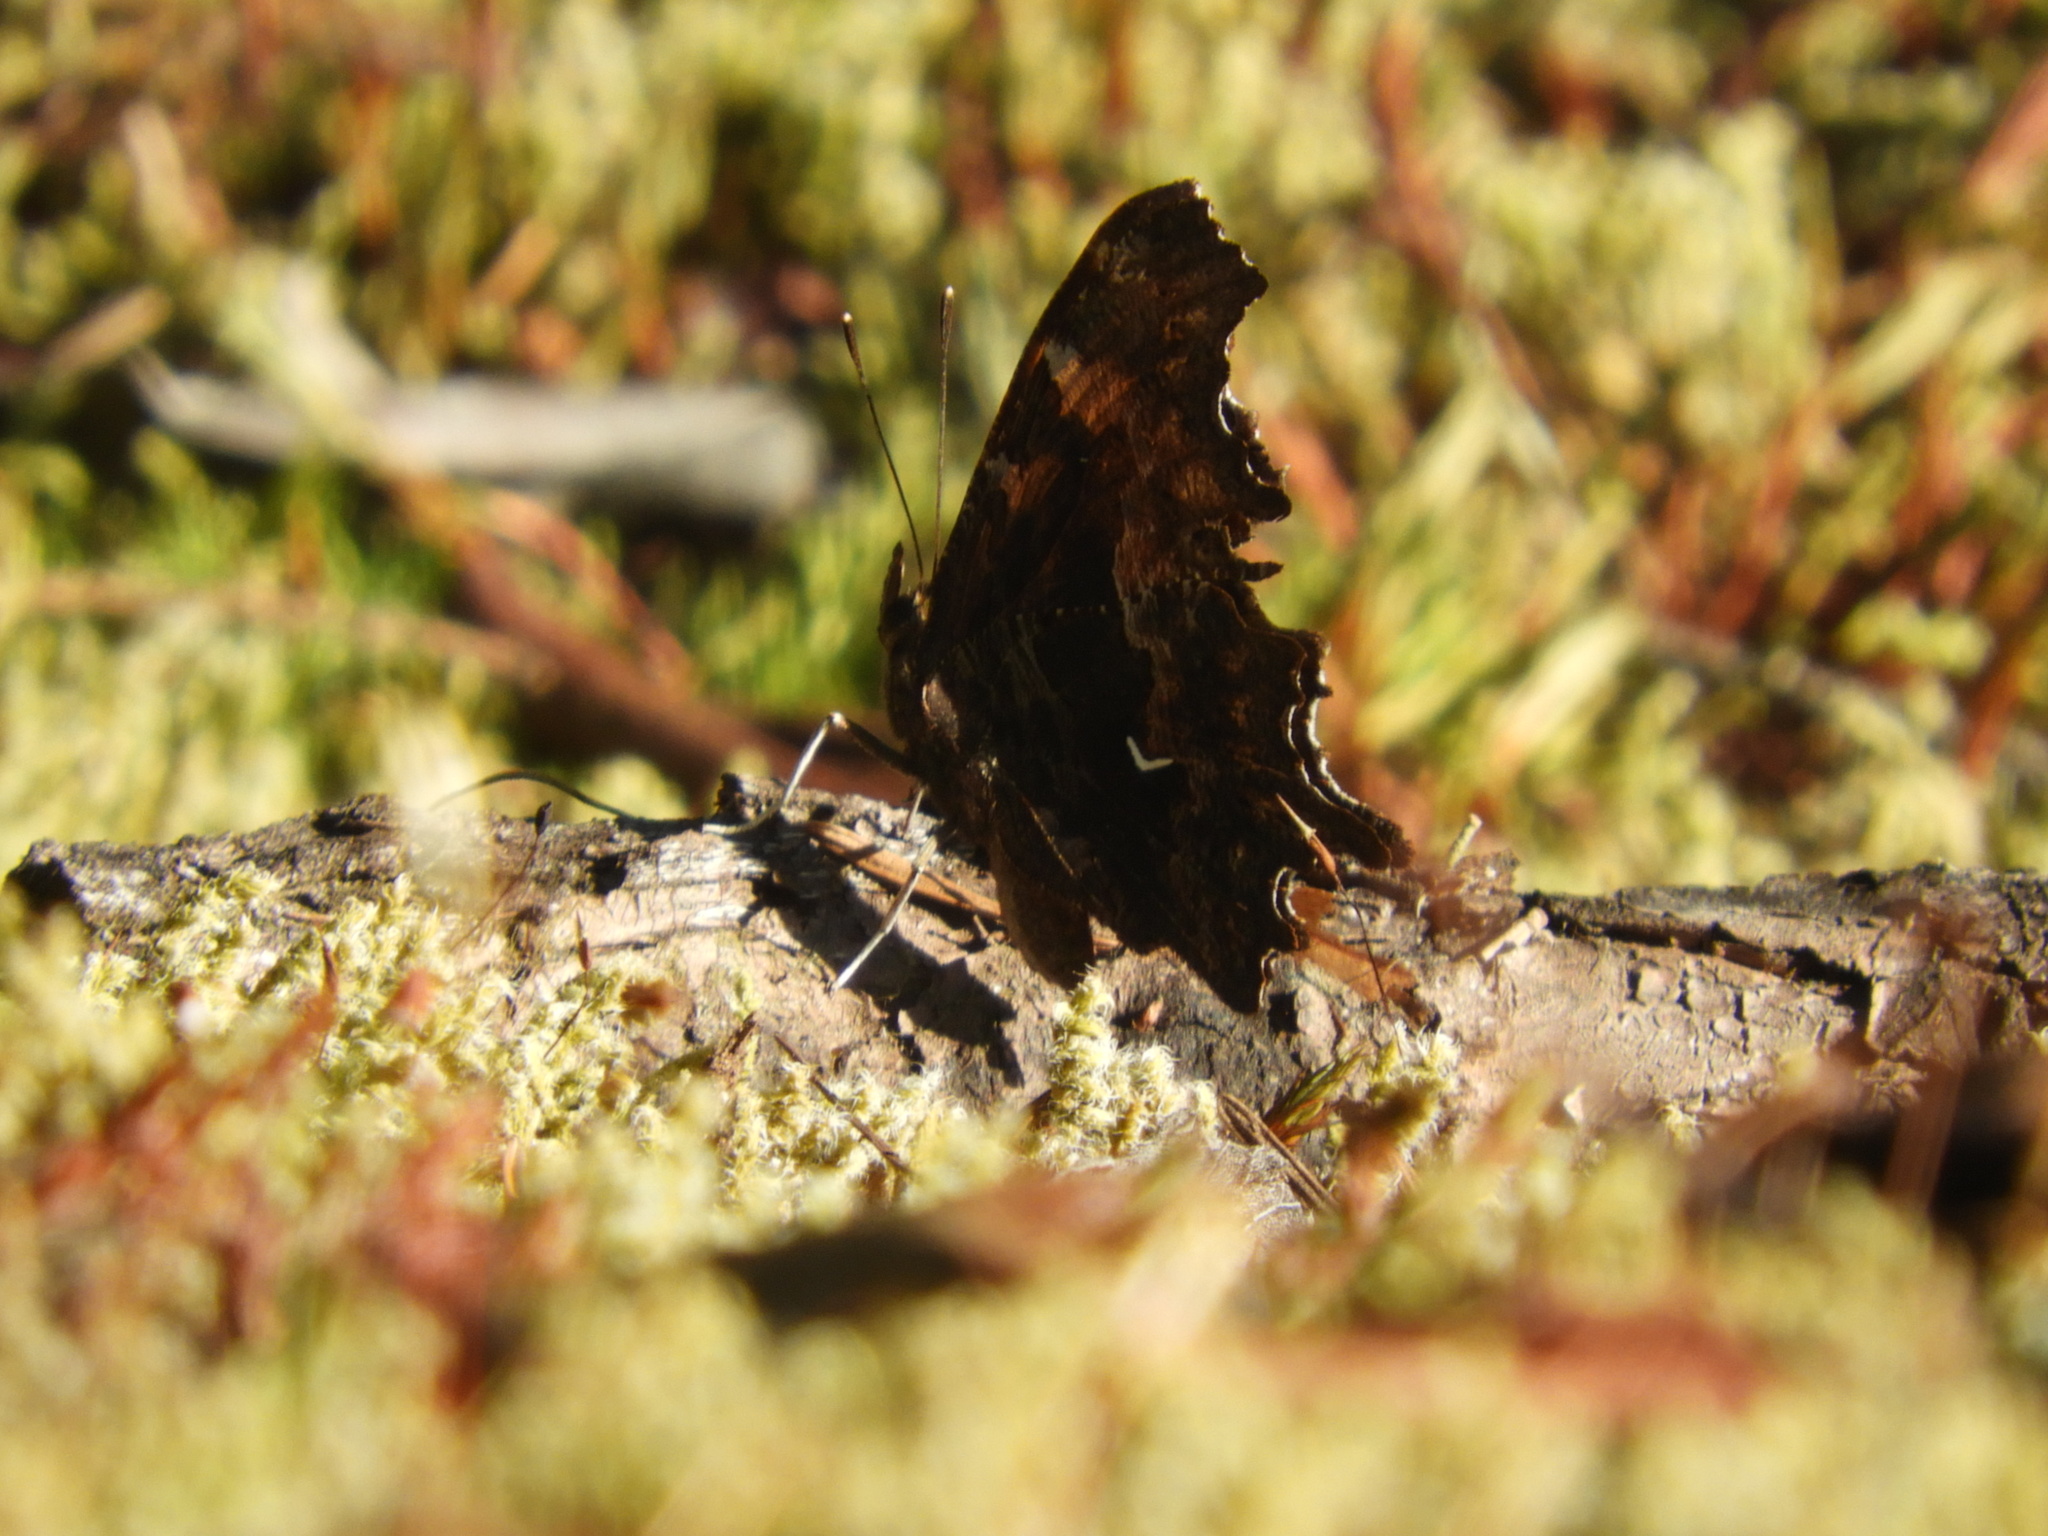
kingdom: Animalia
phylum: Arthropoda
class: Insecta
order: Lepidoptera
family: Nymphalidae
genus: Polygonia
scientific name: Polygonia oreas
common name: Oreas comma
